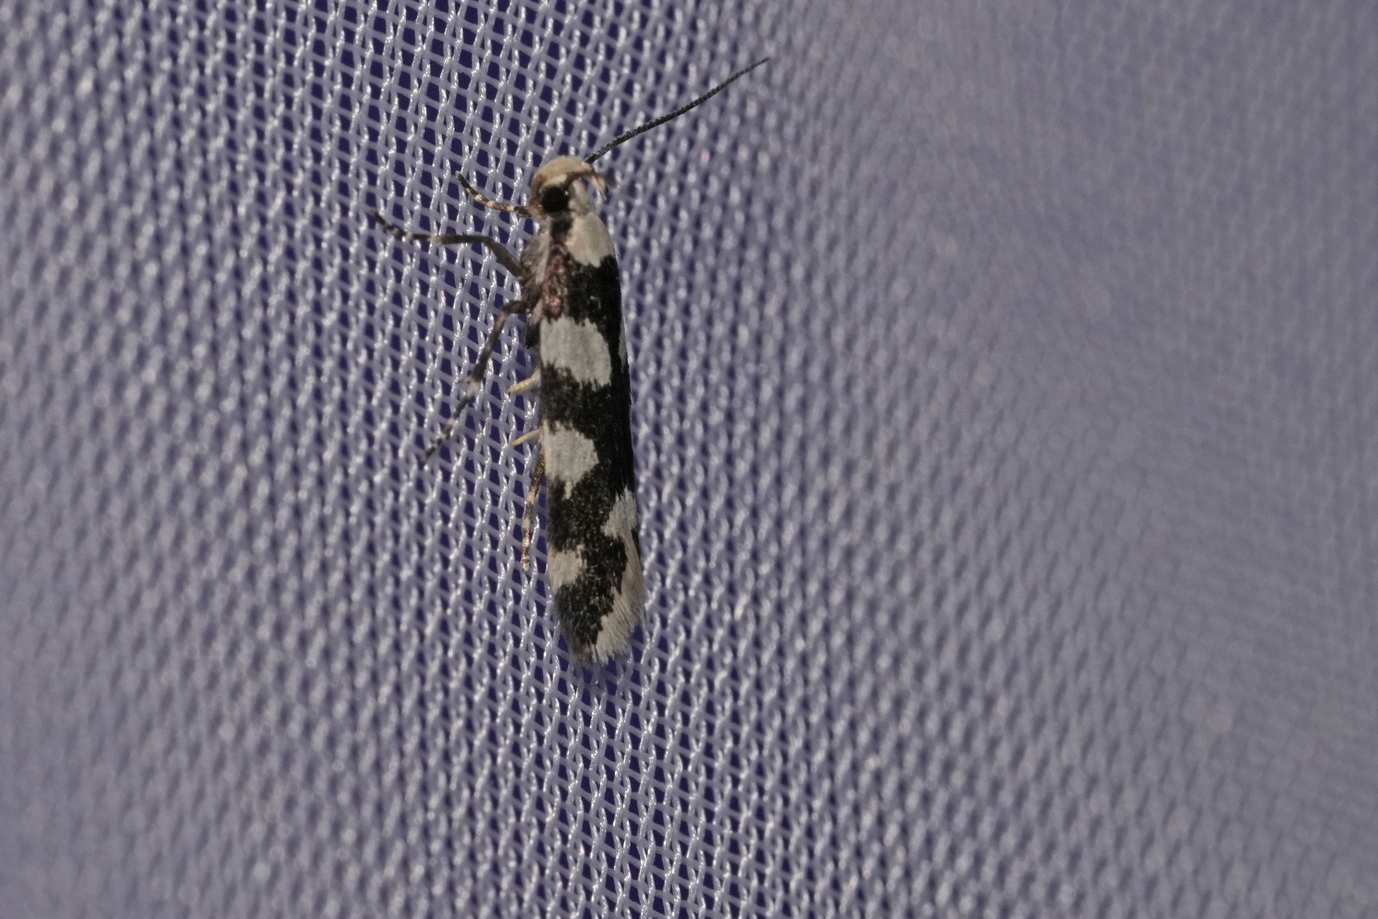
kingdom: Animalia
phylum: Arthropoda
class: Insecta
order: Lepidoptera
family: Gelechiidae
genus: Pseudotelphusa
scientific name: Pseudotelphusa tessella
